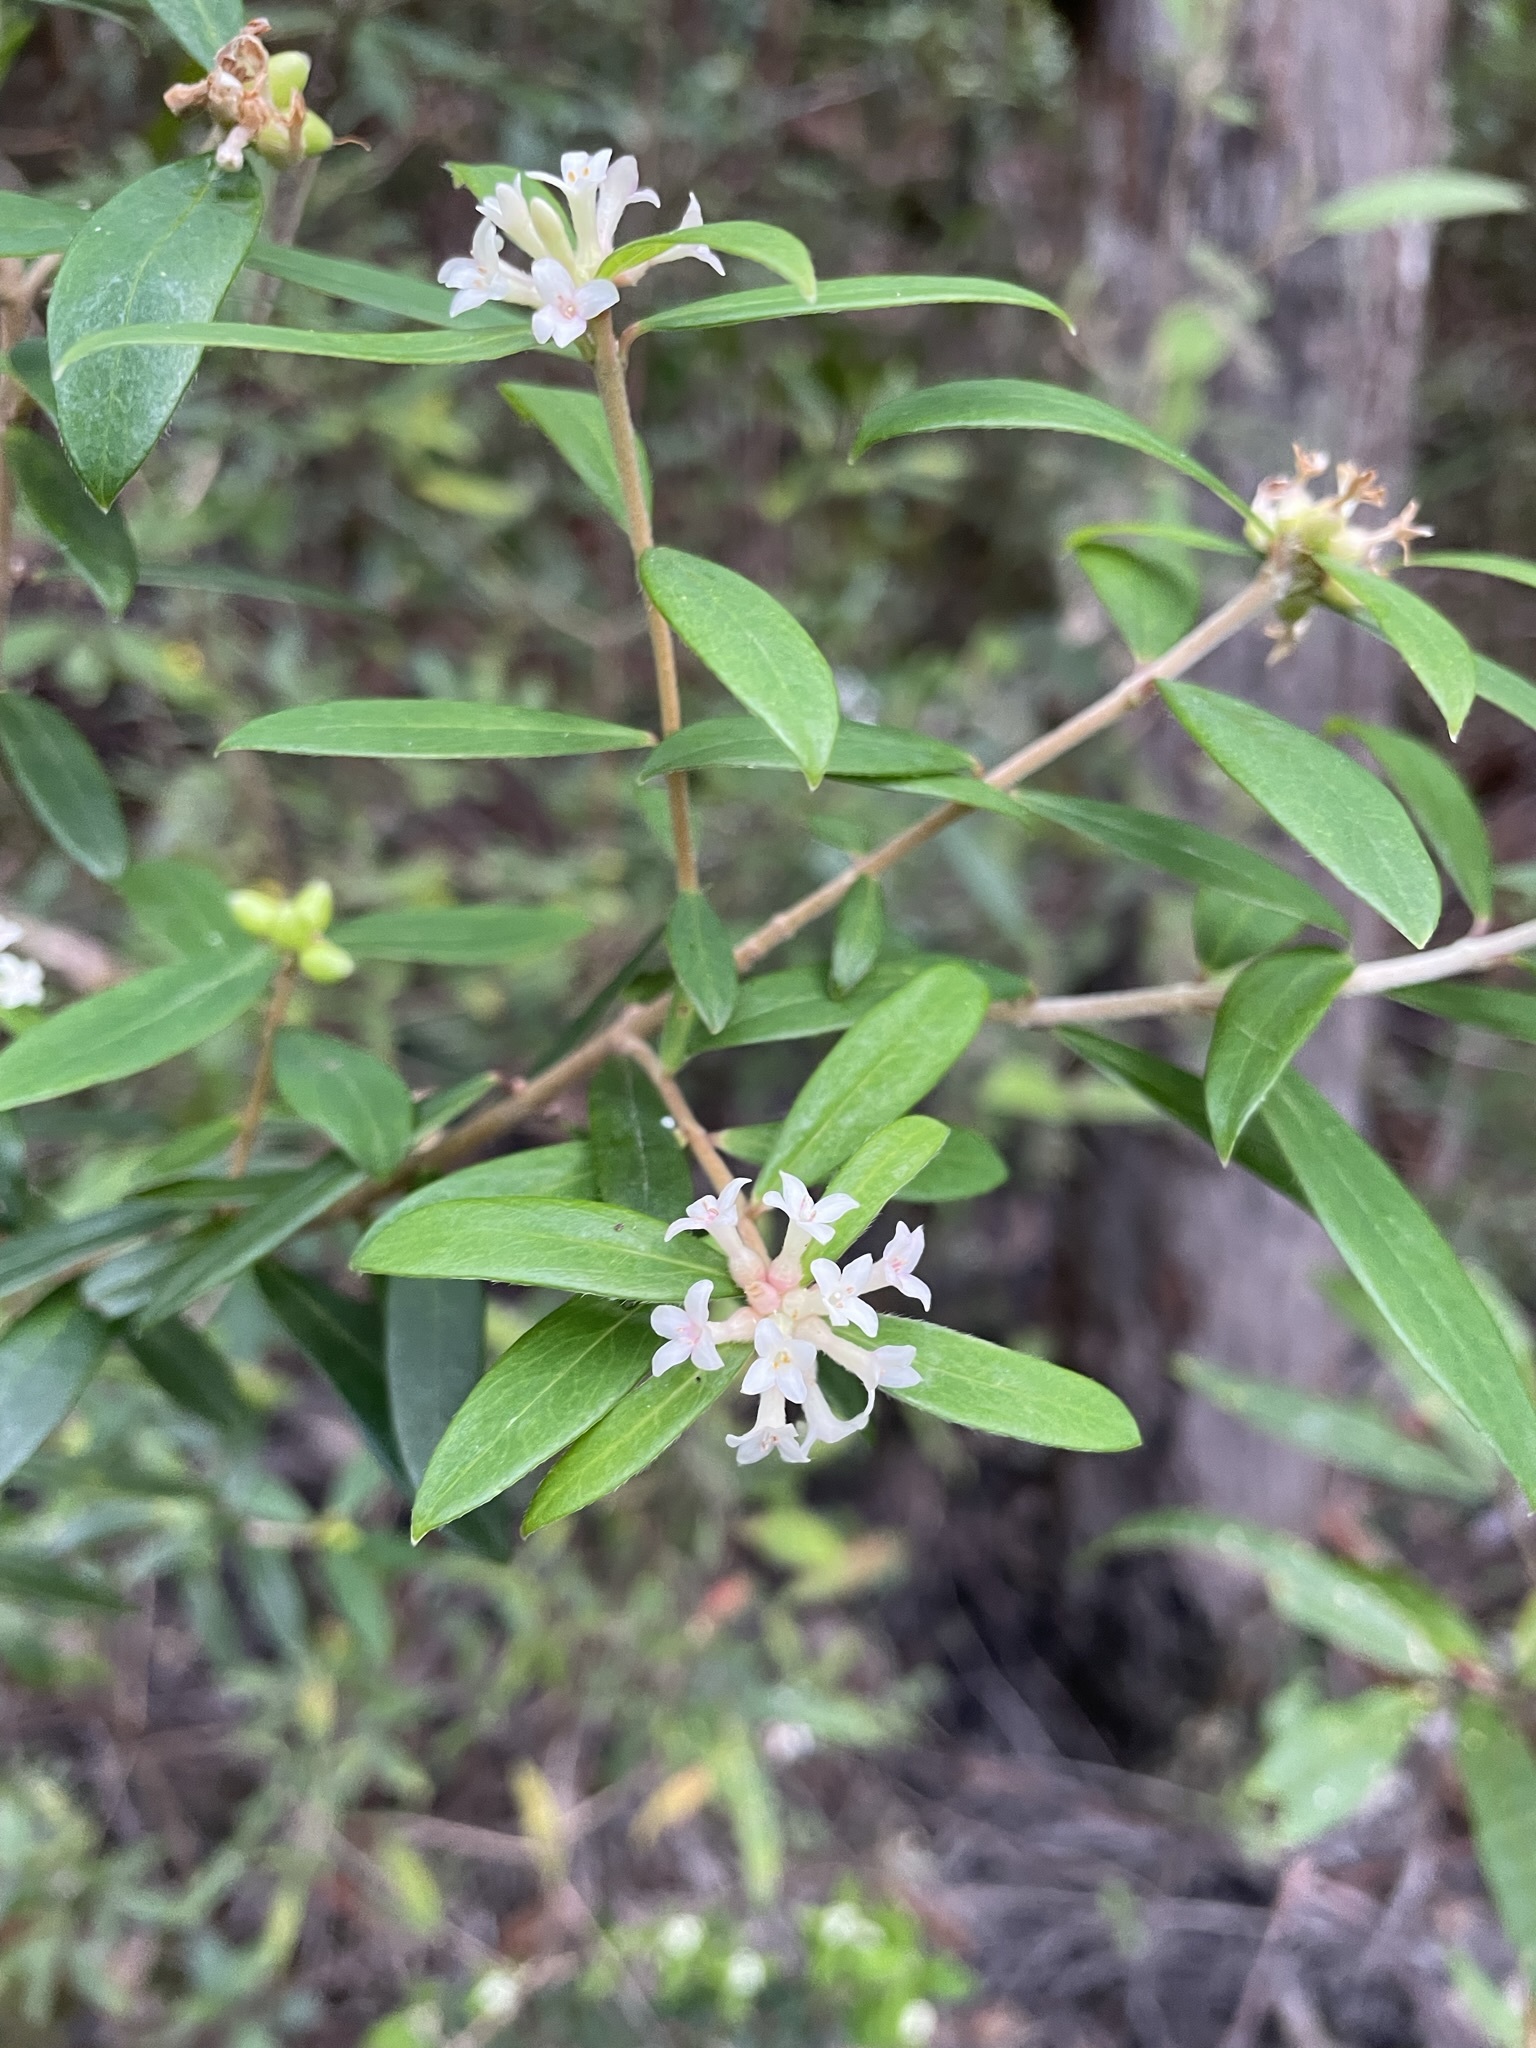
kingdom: Plantae
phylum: Tracheophyta
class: Magnoliopsida
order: Malvales
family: Thymelaeaceae
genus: Pimelea
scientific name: Pimelea drupacea
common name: Cherry riceflower
